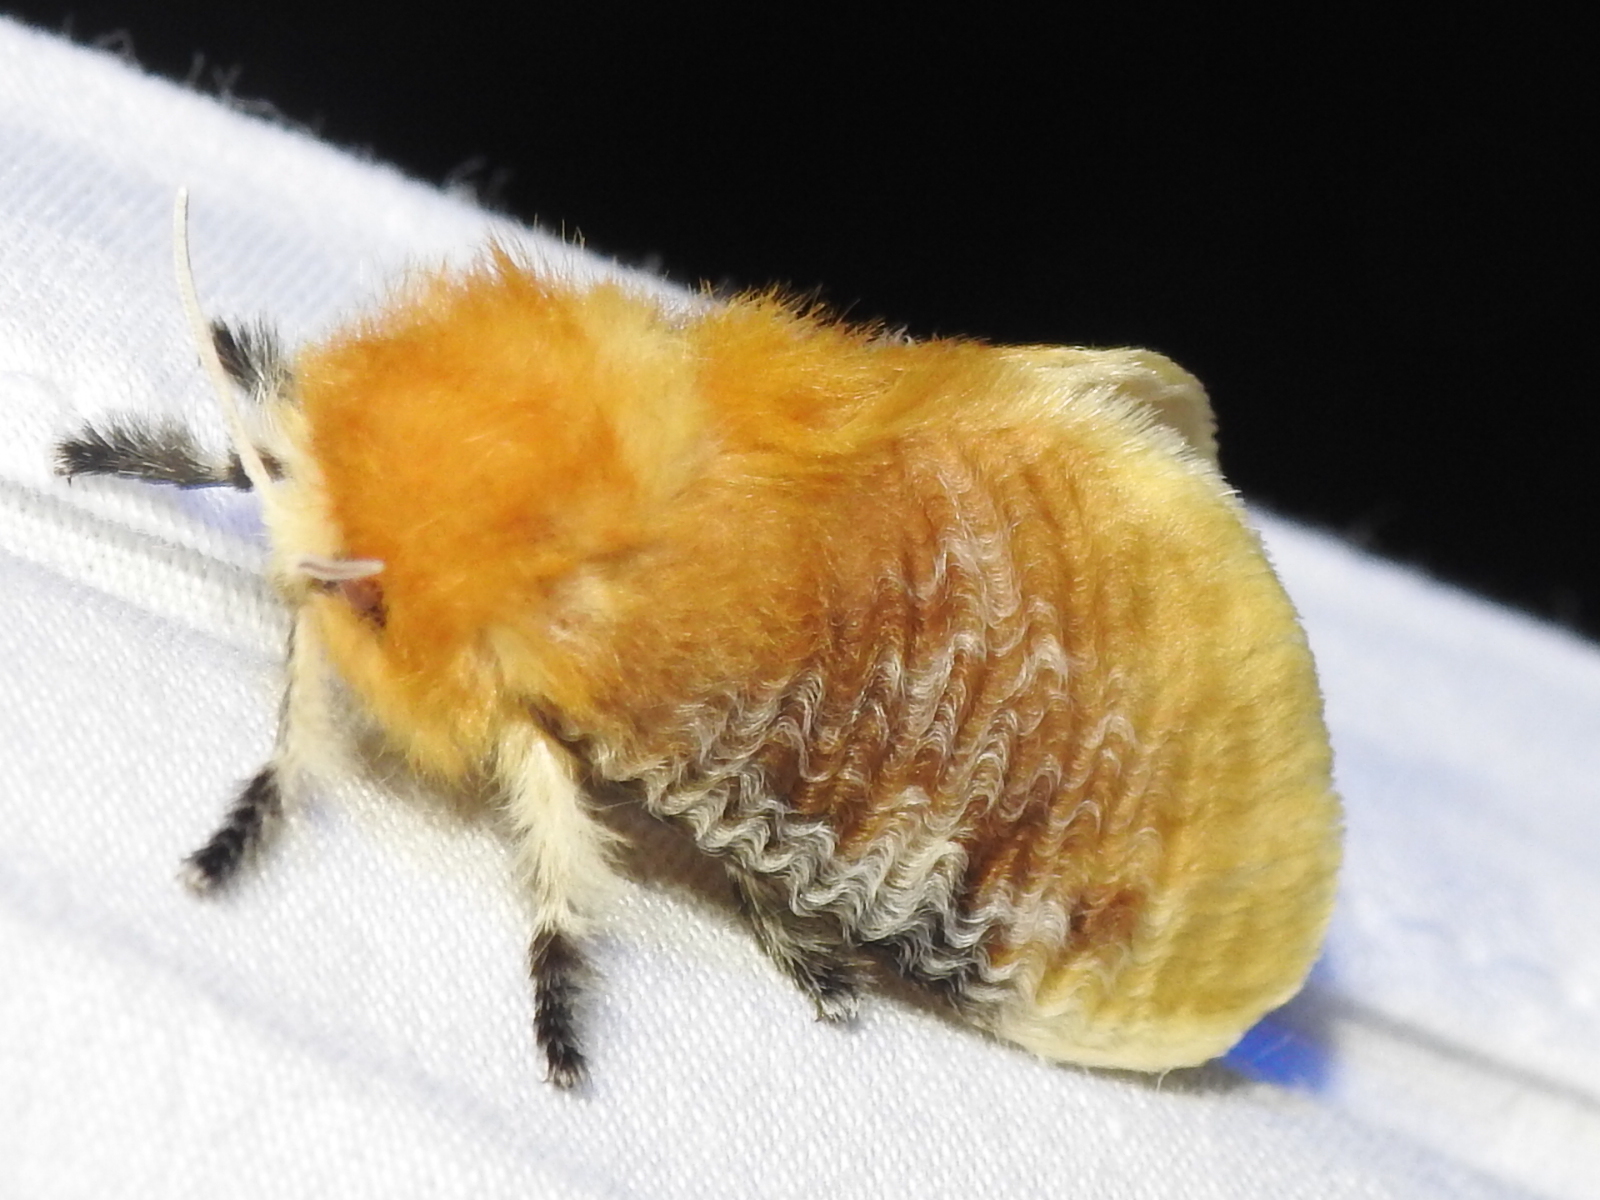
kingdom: Animalia
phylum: Arthropoda
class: Insecta
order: Lepidoptera
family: Megalopygidae
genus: Megalopyge
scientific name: Megalopyge opercularis
